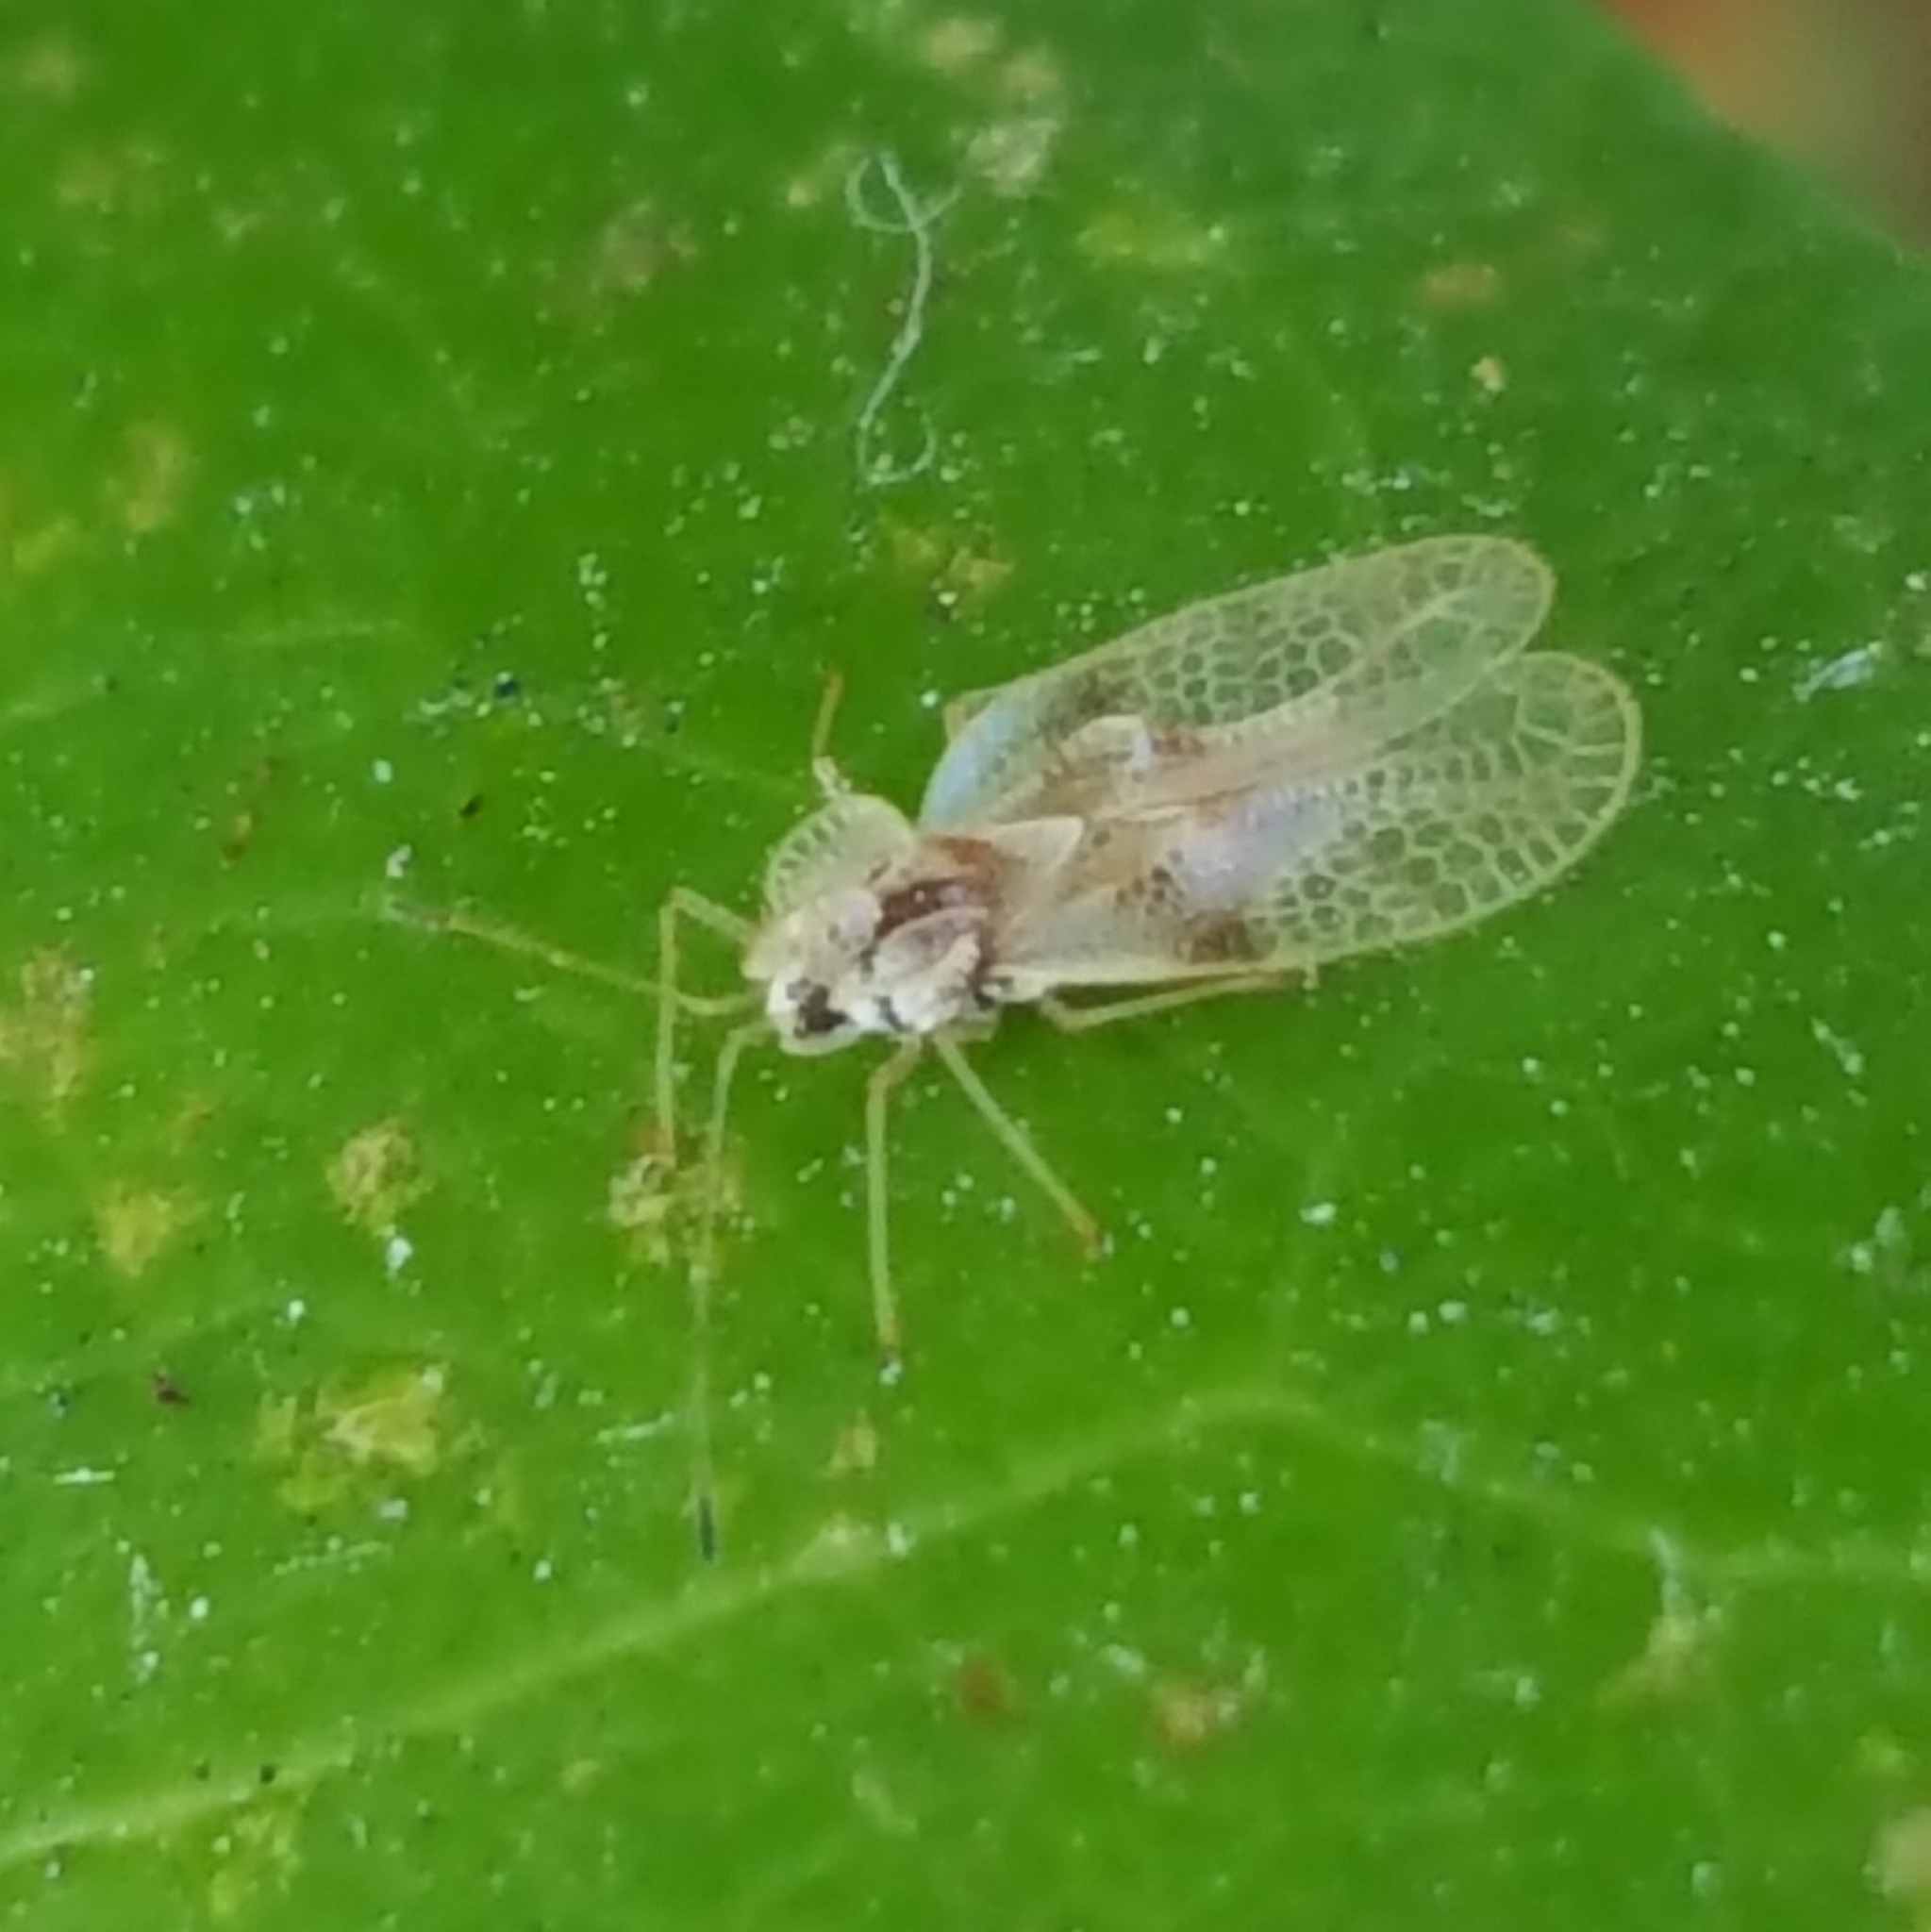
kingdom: Animalia
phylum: Arthropoda
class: Insecta
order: Hemiptera
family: Tingidae
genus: Stephanitis
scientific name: Stephanitis rhododendri
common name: Rhododendron lacebug
